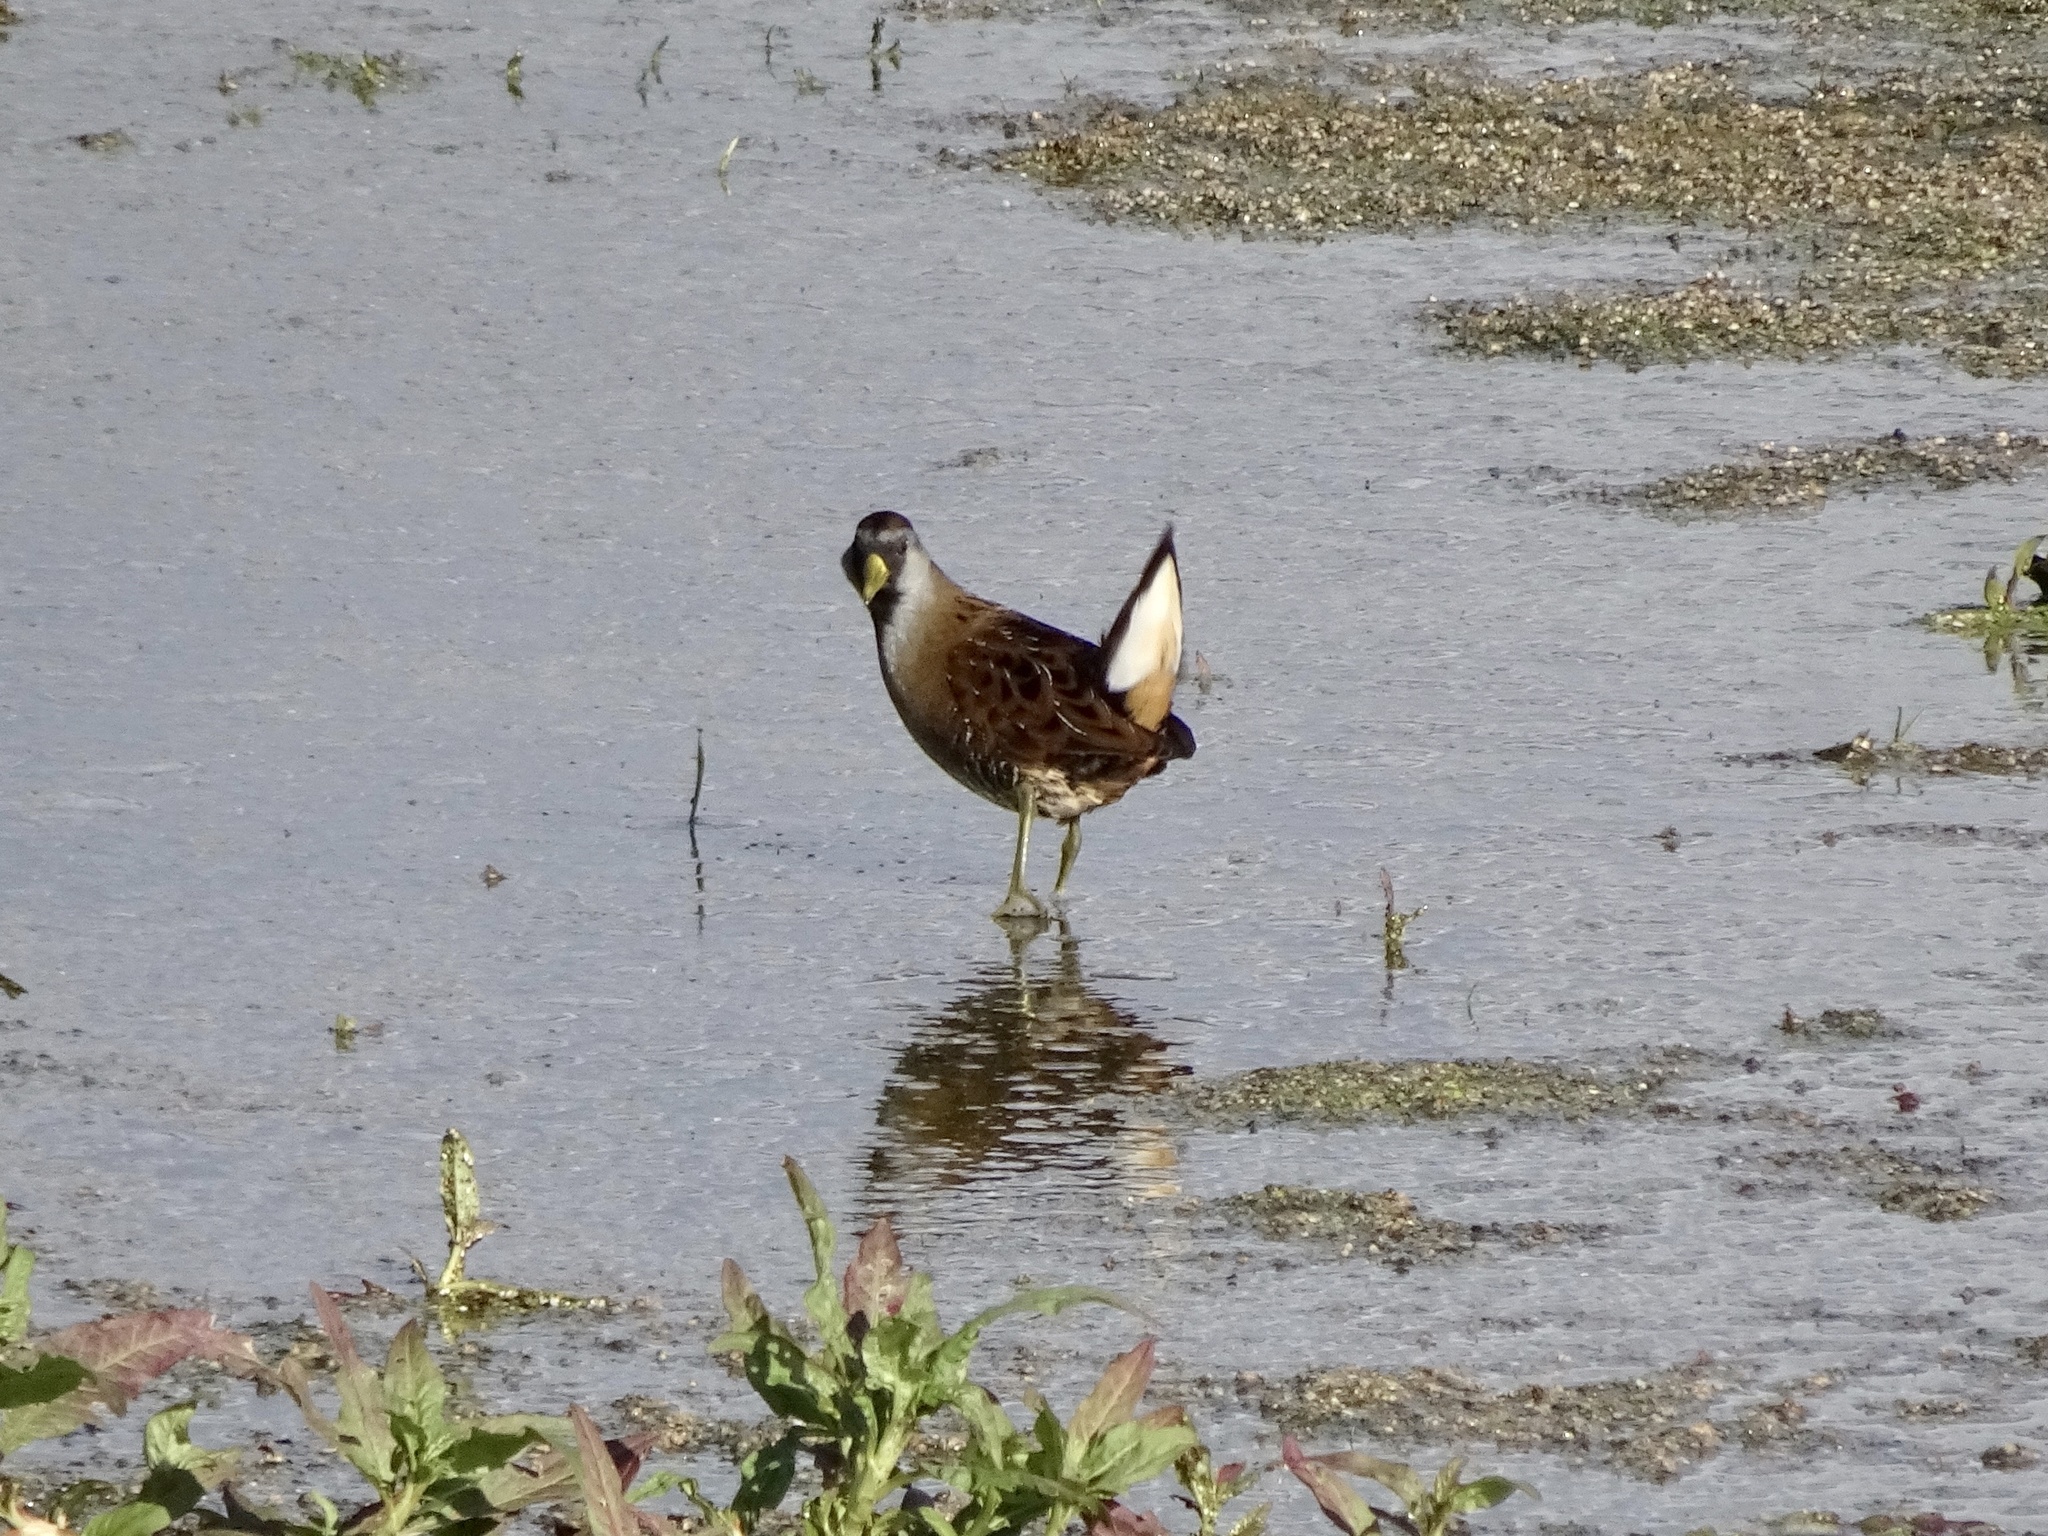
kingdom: Animalia
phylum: Chordata
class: Aves
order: Gruiformes
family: Rallidae
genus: Porzana
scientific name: Porzana carolina
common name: Sora
